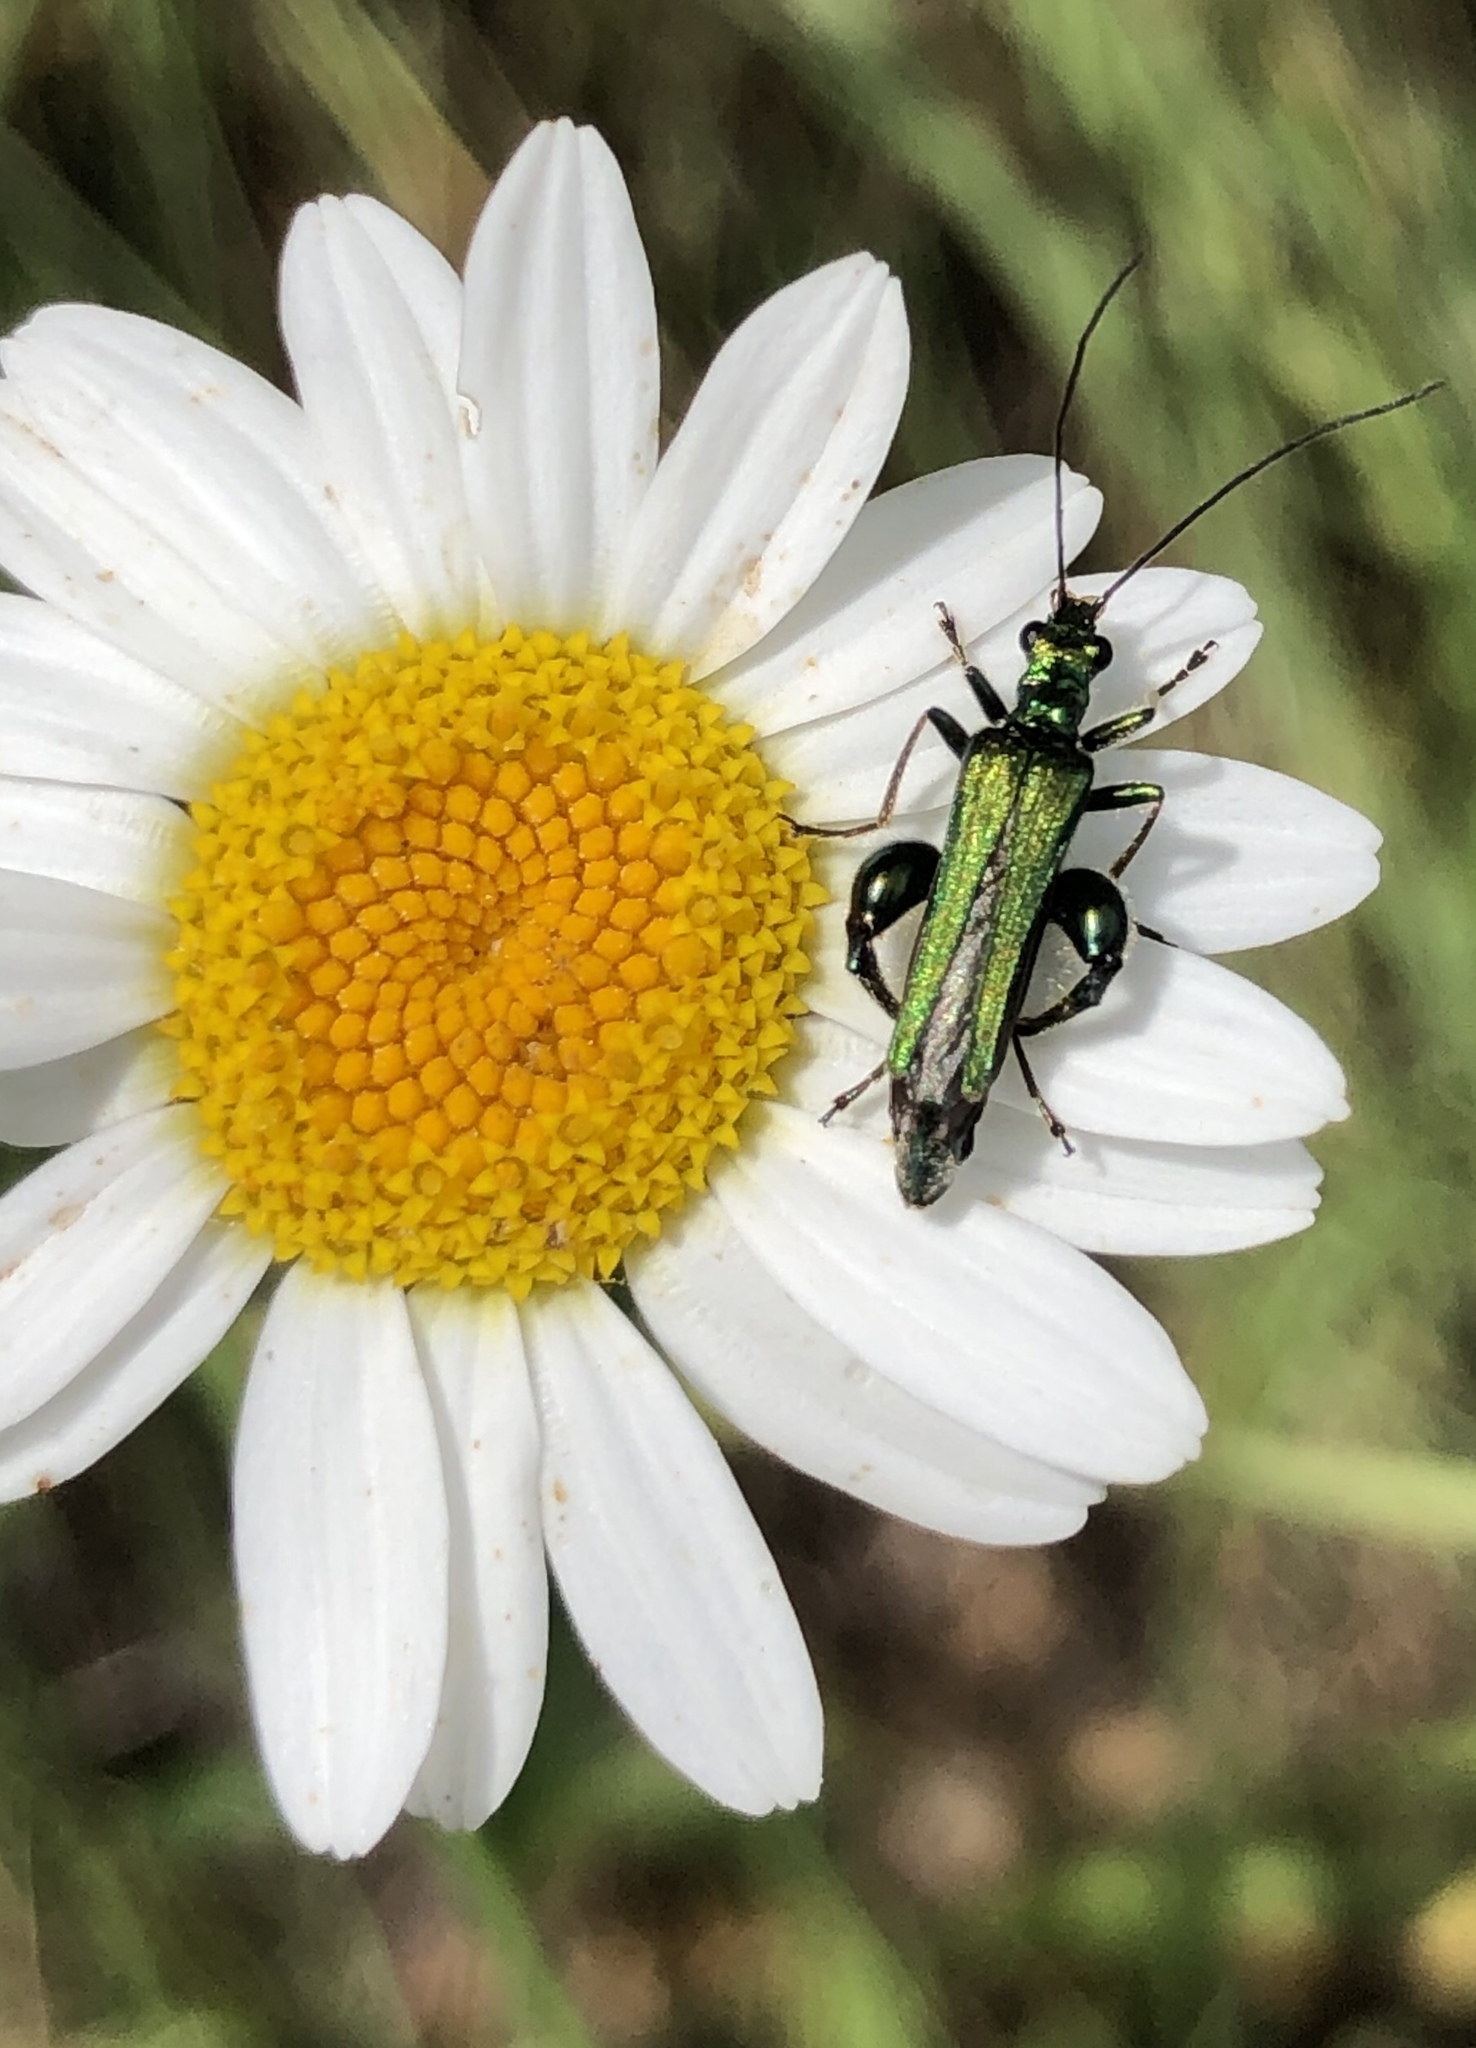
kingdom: Animalia
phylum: Arthropoda
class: Insecta
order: Coleoptera
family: Oedemeridae
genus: Oedemera
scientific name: Oedemera nobilis
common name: Swollen-thighed beetle
